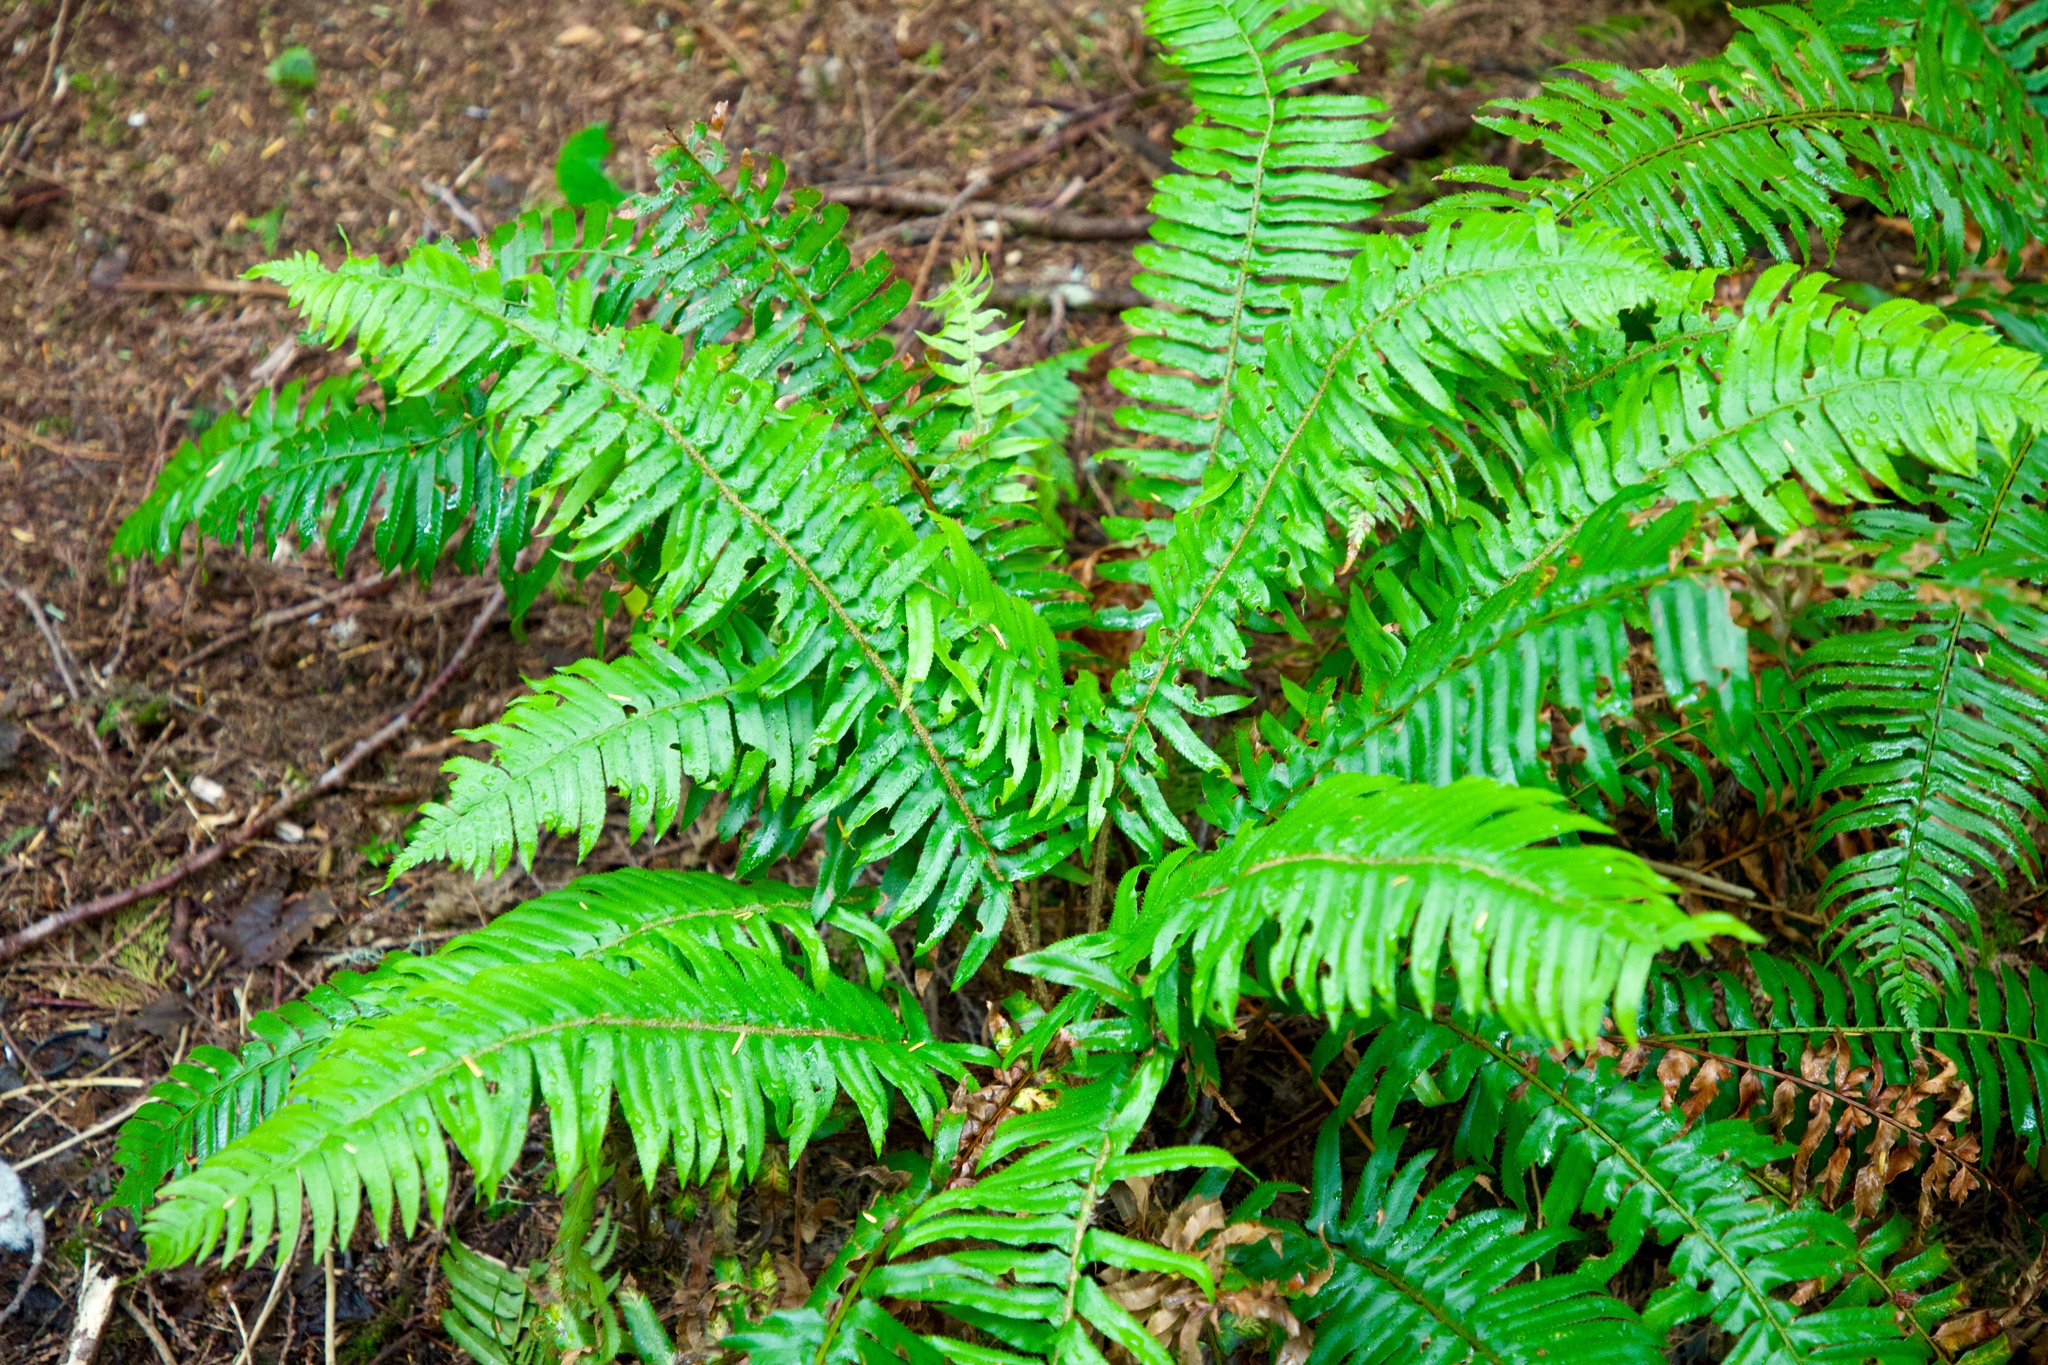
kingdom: Plantae
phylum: Tracheophyta
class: Polypodiopsida
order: Polypodiales
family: Dryopteridaceae
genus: Polystichum
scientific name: Polystichum munitum
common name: Western sword-fern
